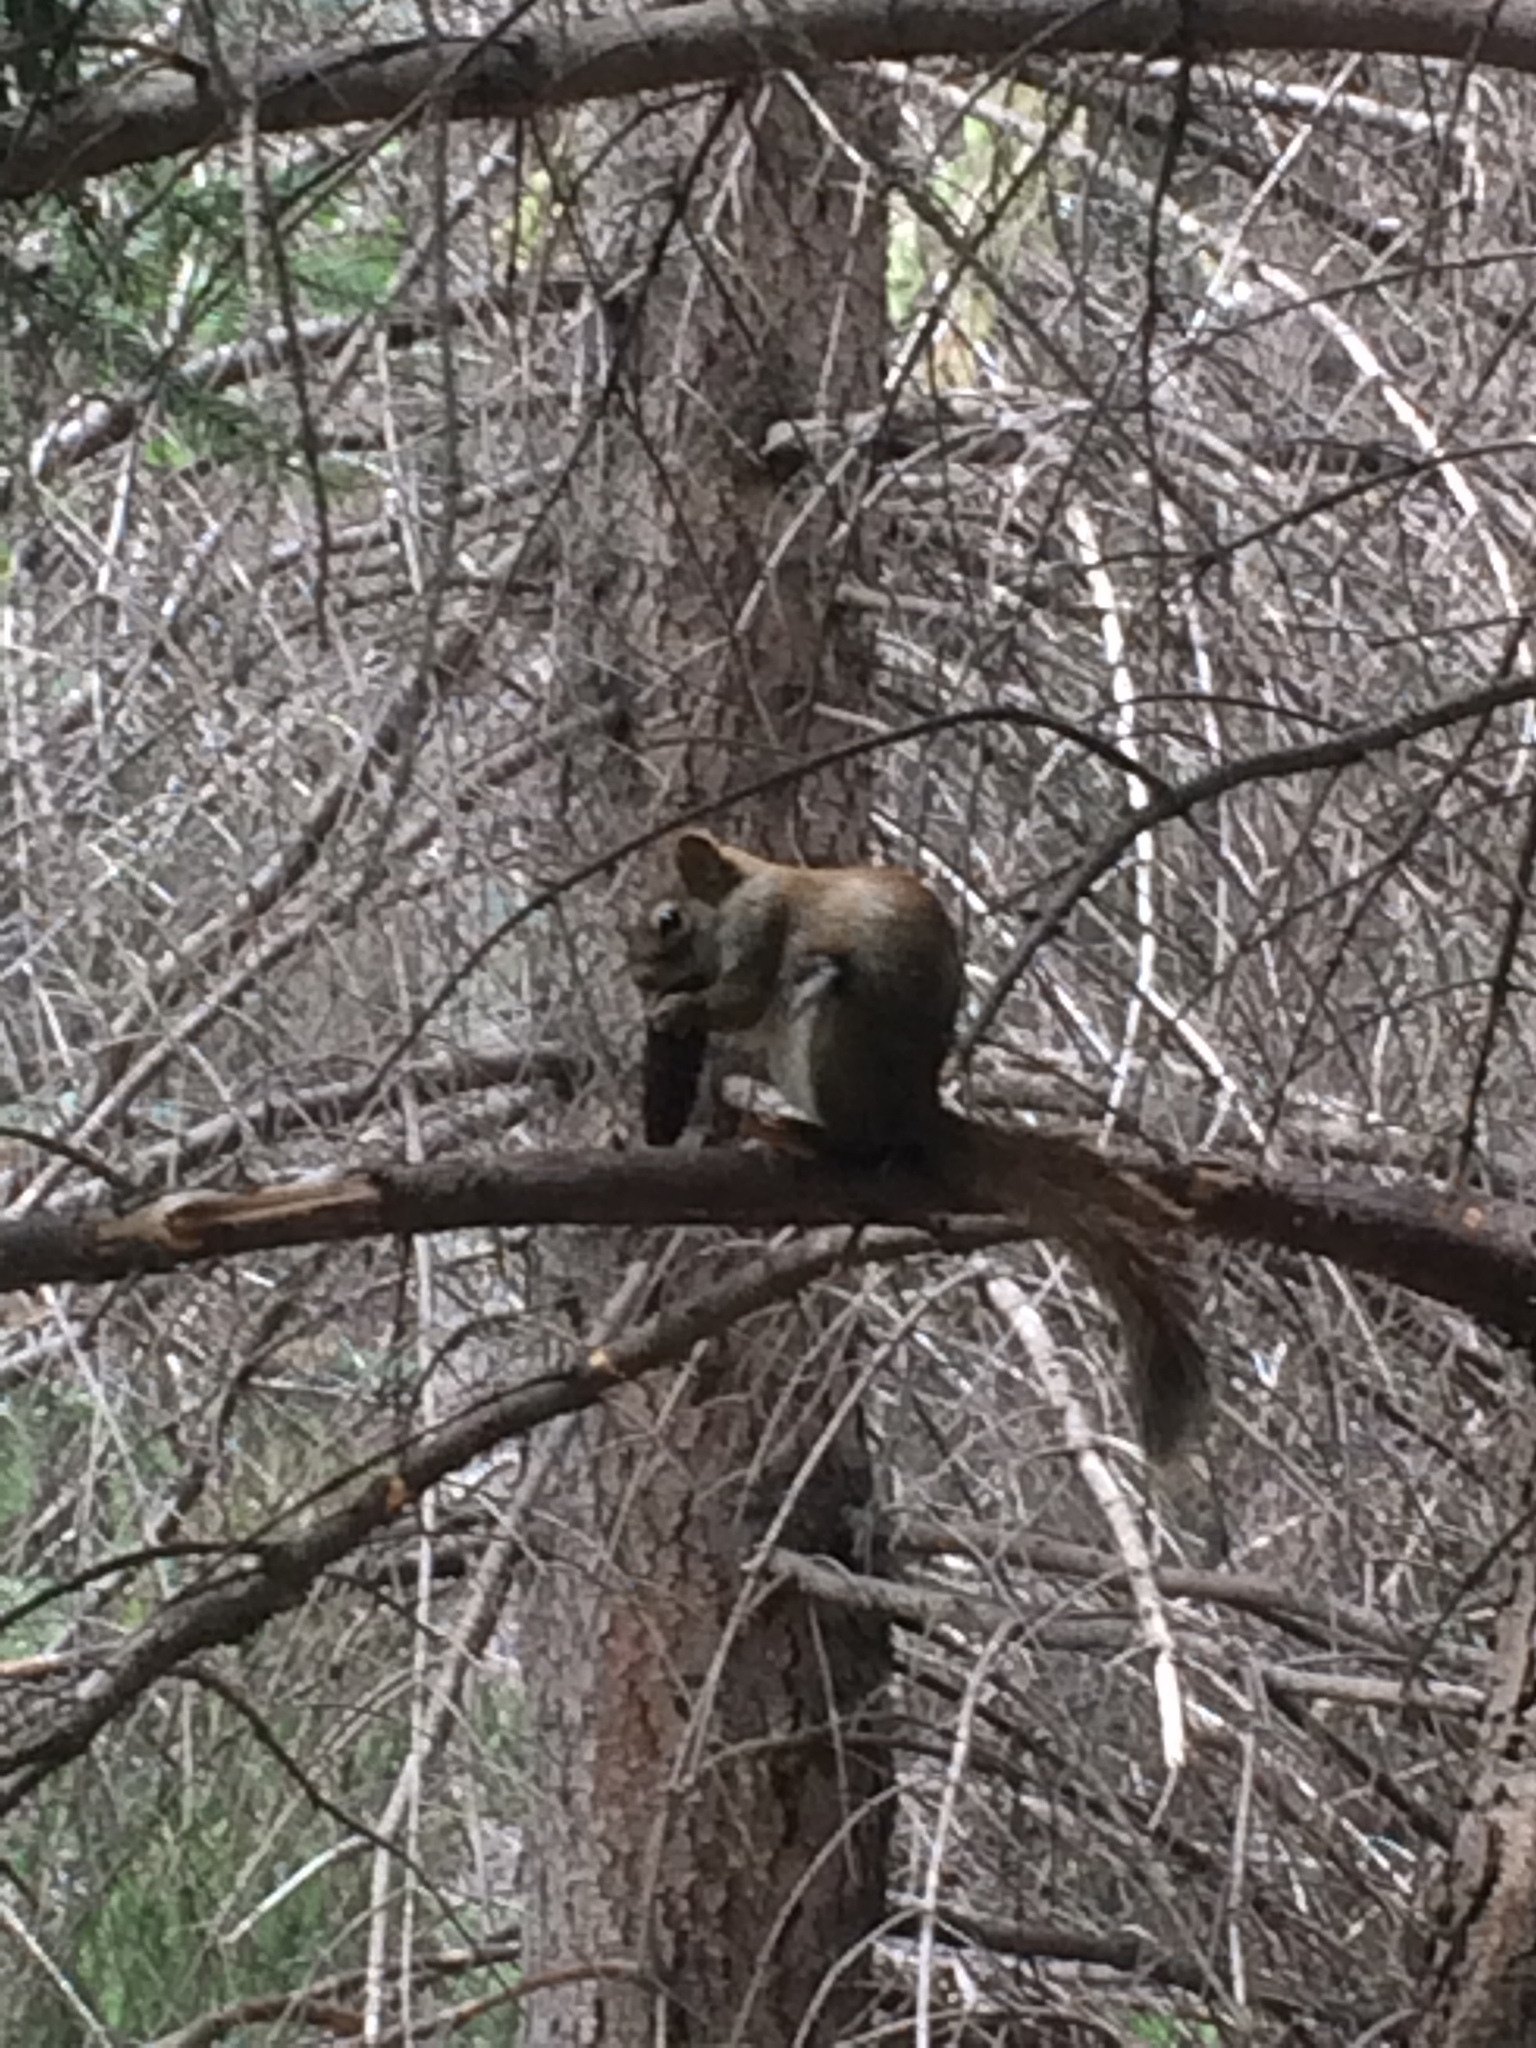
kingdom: Animalia
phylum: Chordata
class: Mammalia
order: Rodentia
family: Sciuridae
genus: Tamiasciurus
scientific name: Tamiasciurus hudsonicus
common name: Red squirrel
